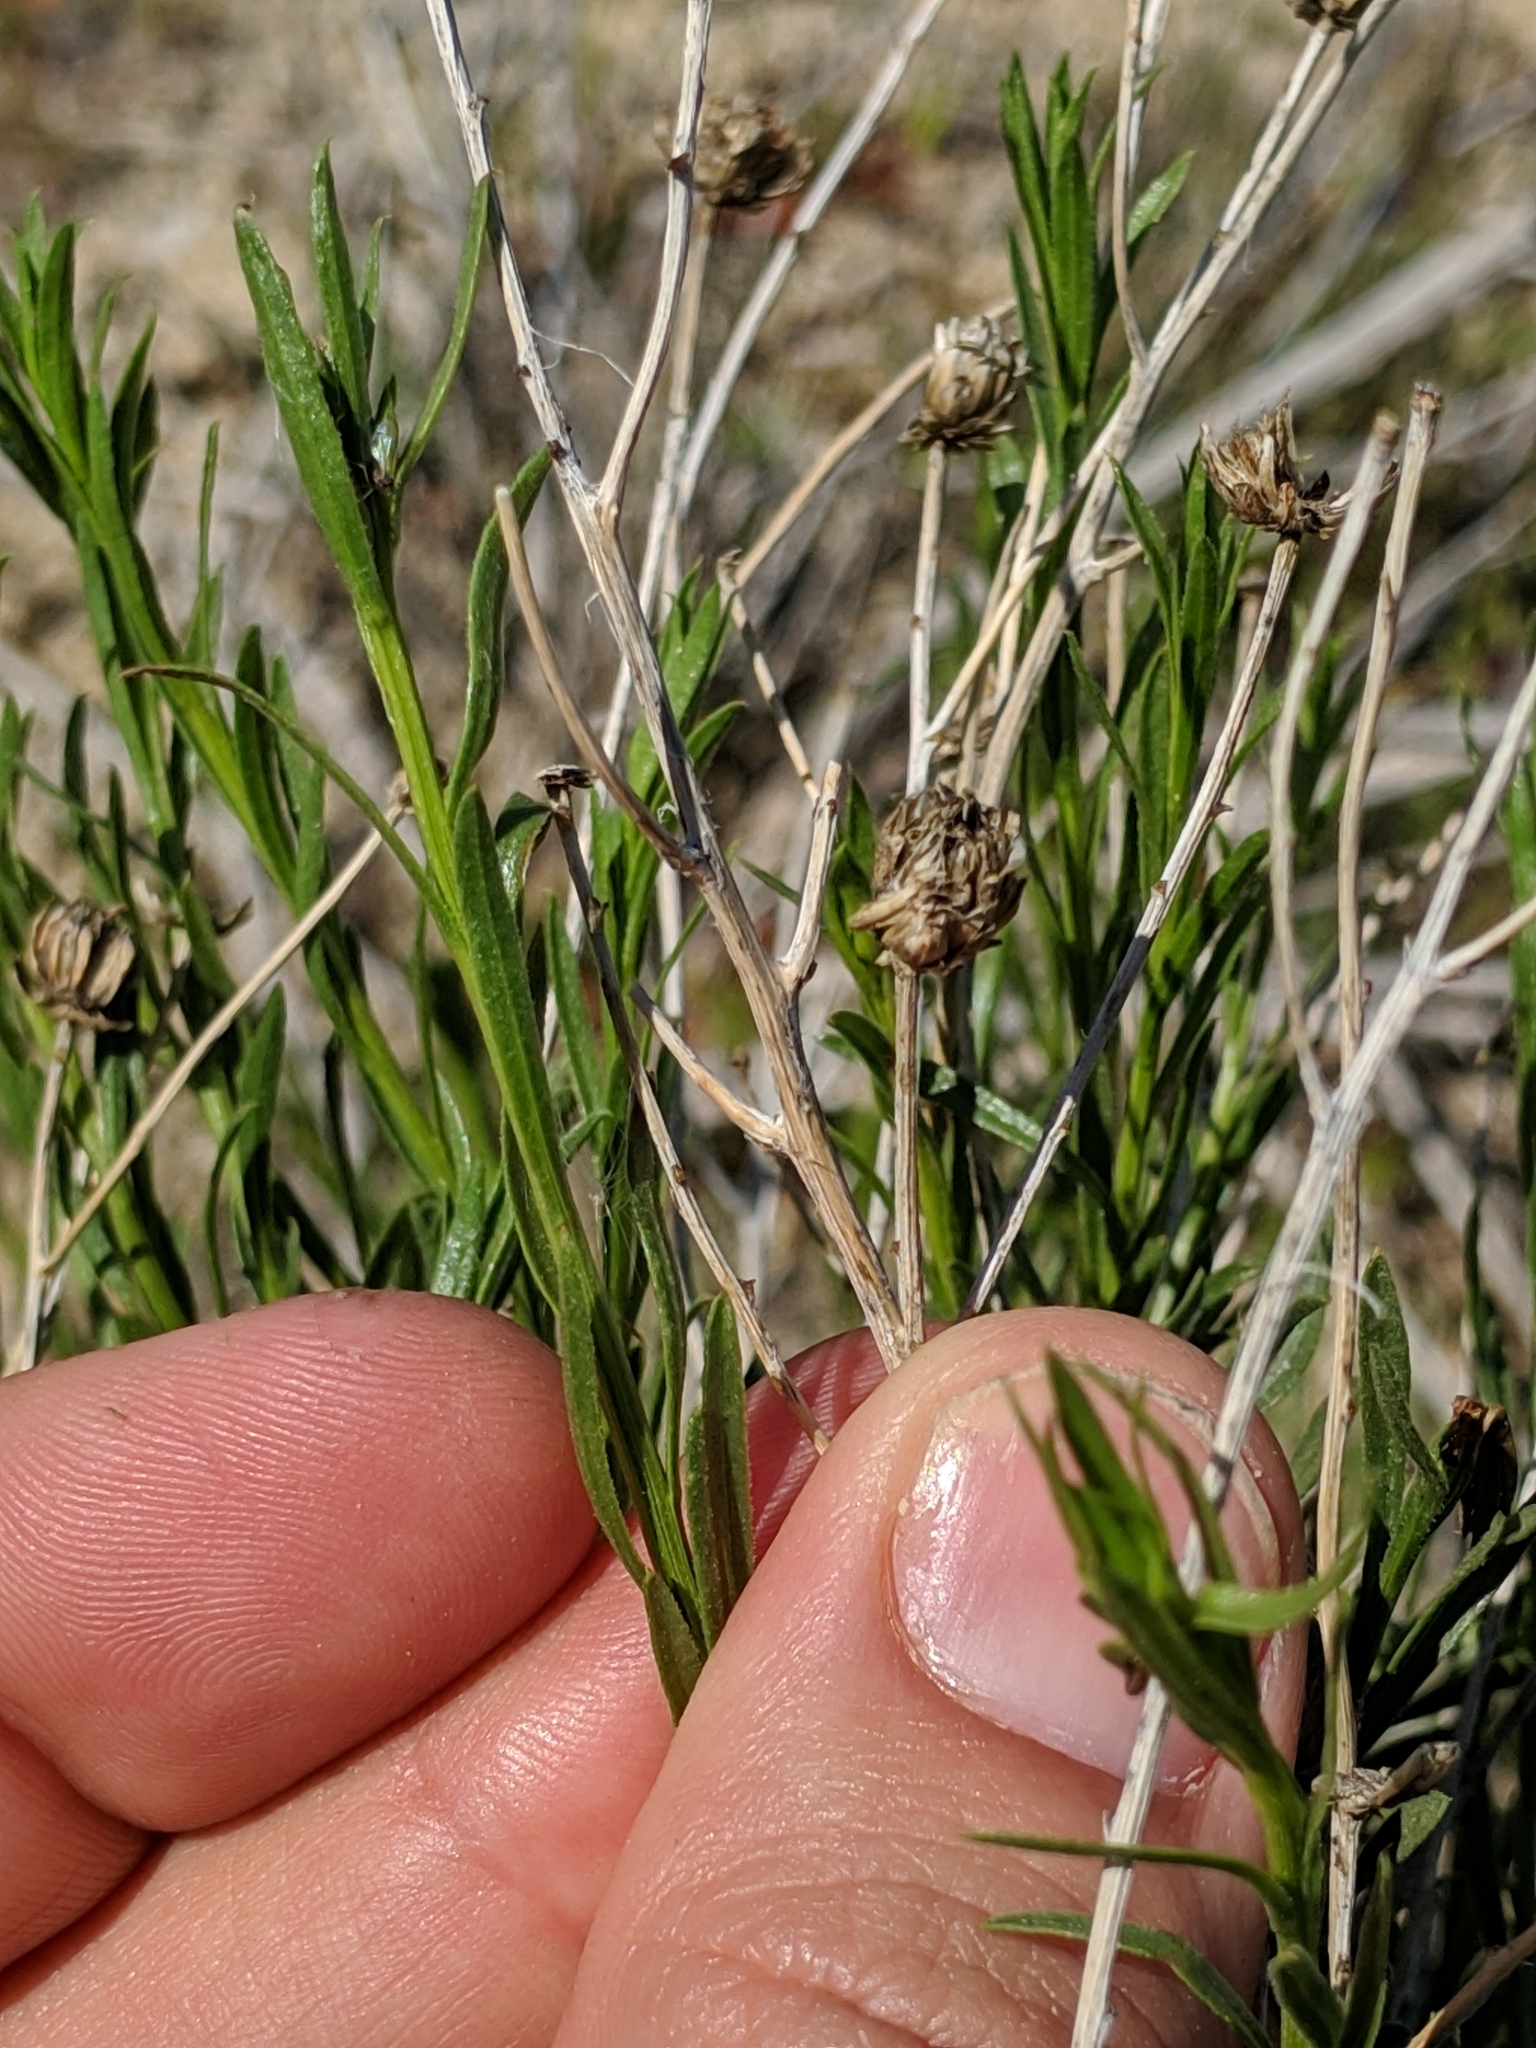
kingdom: Plantae
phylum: Tracheophyta
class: Magnoliopsida
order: Asterales
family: Asteraceae
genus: Eastwoodia
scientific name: Eastwoodia elegans
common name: Yellow-aster
